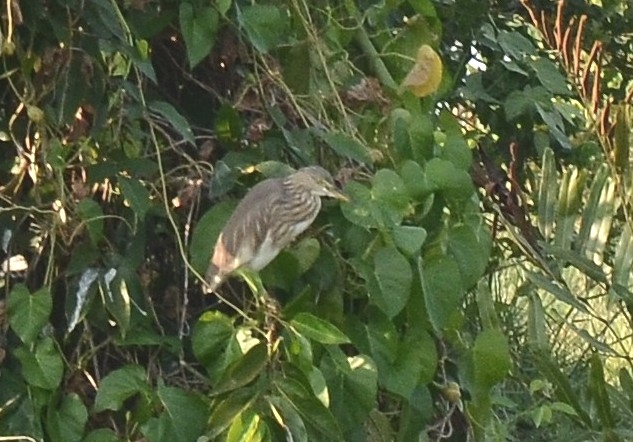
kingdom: Animalia
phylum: Chordata
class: Aves
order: Pelecaniformes
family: Ardeidae
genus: Ardeola
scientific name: Ardeola grayii
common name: Indian pond heron
